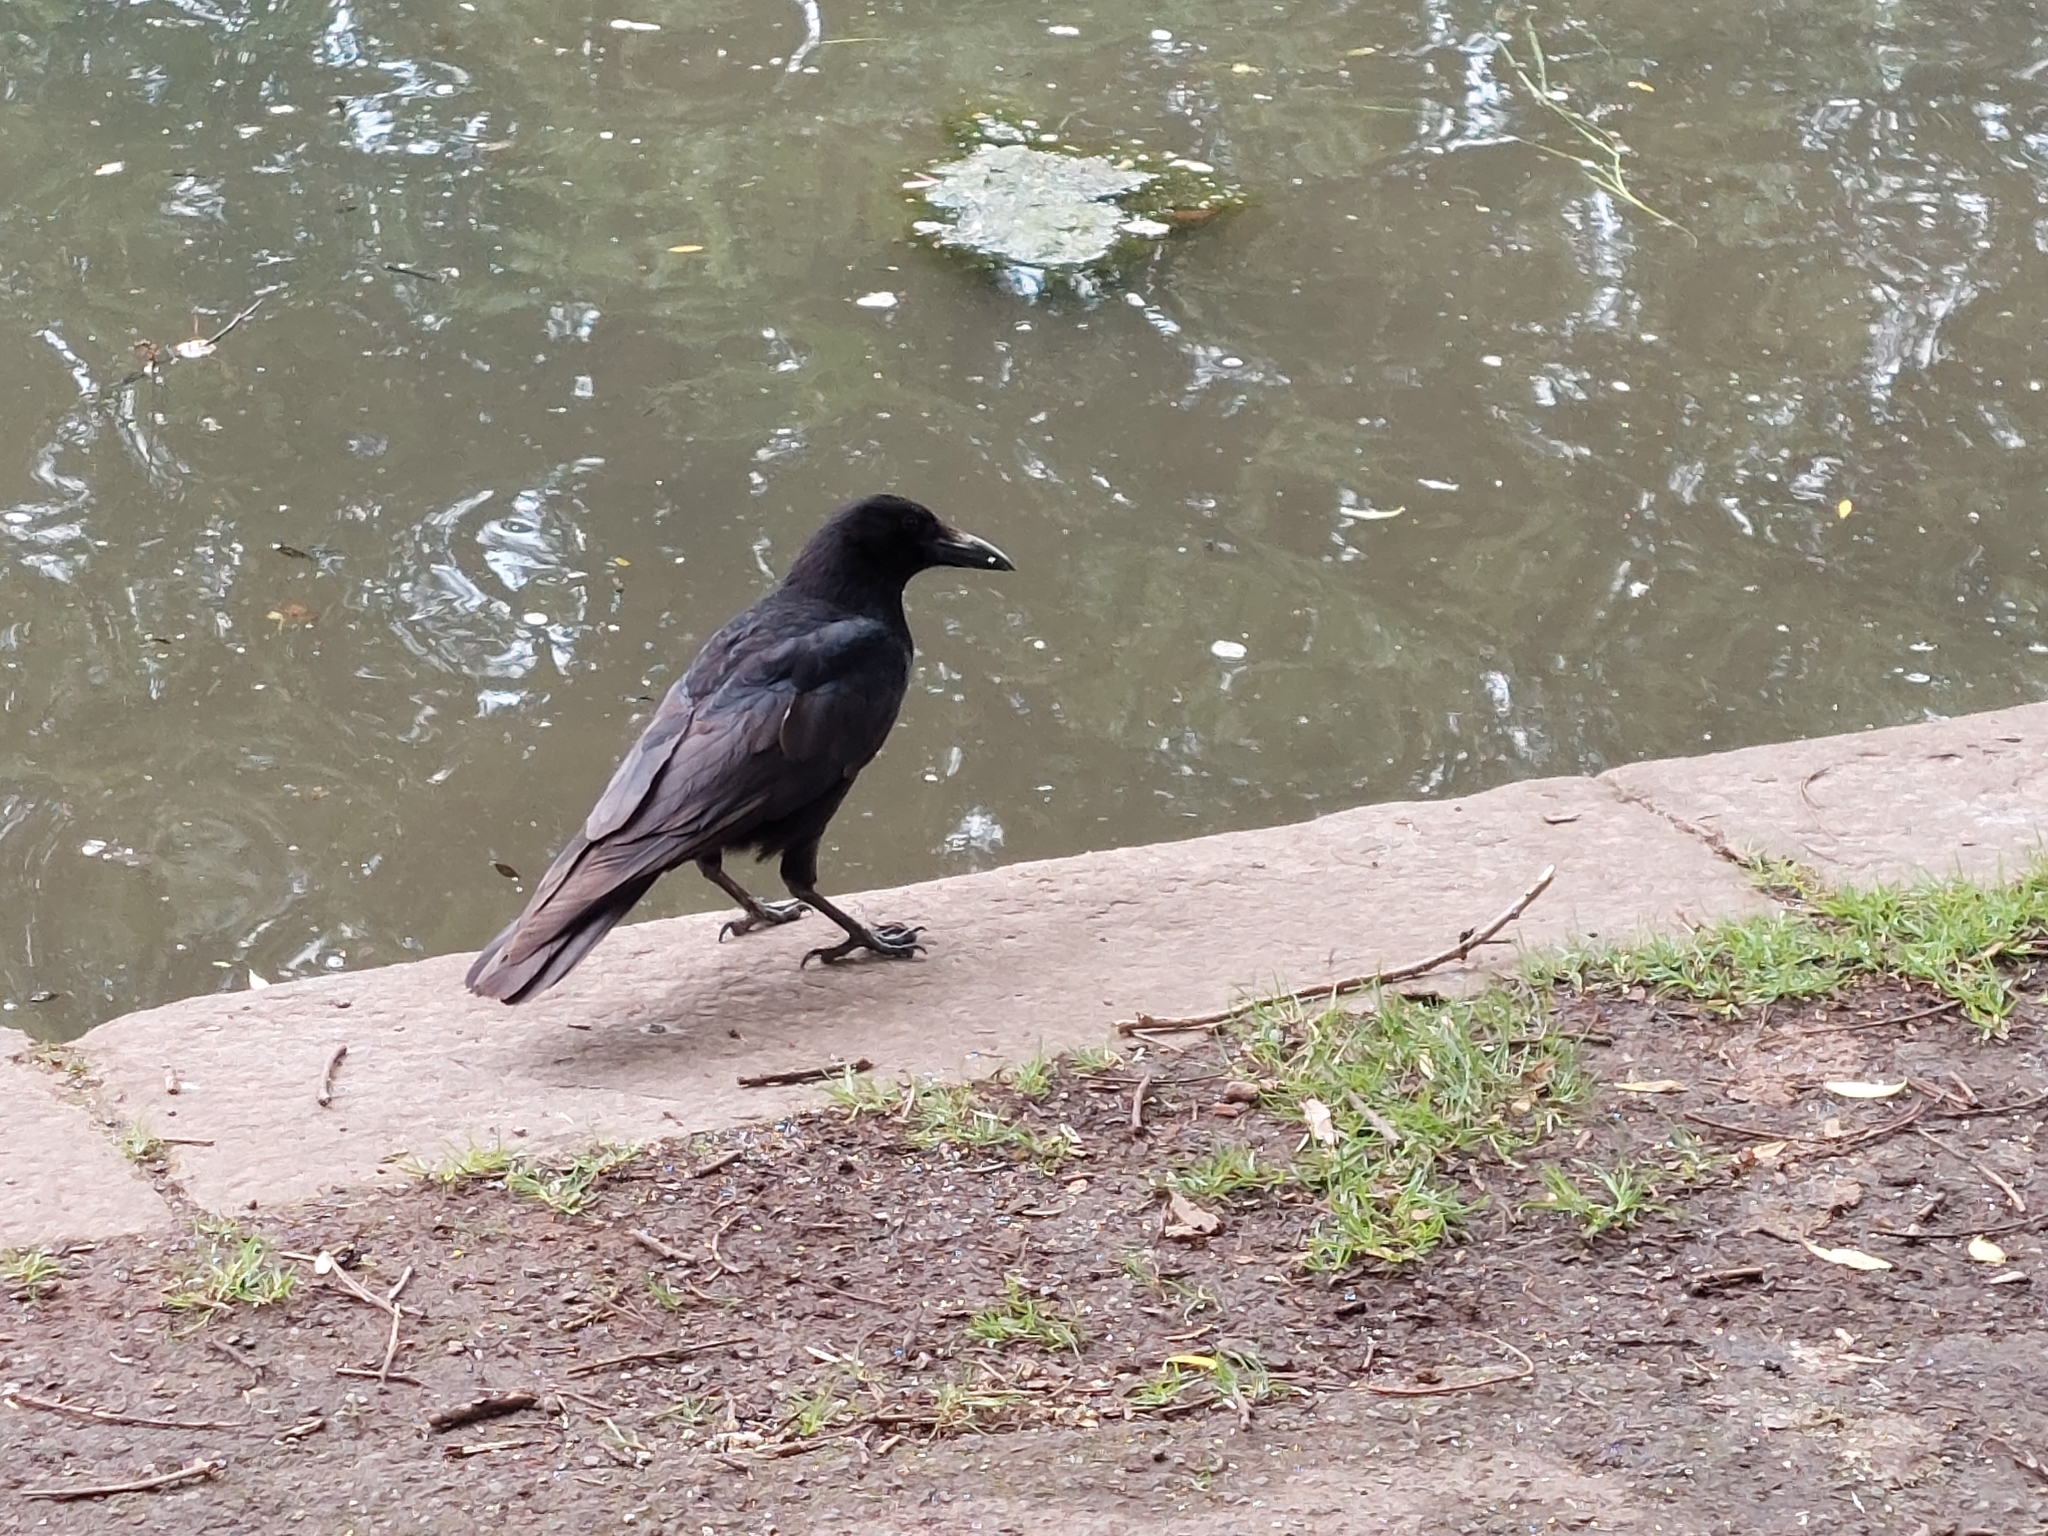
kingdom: Animalia
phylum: Chordata
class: Aves
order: Passeriformes
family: Corvidae
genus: Corvus
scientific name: Corvus corone
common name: Carrion crow
